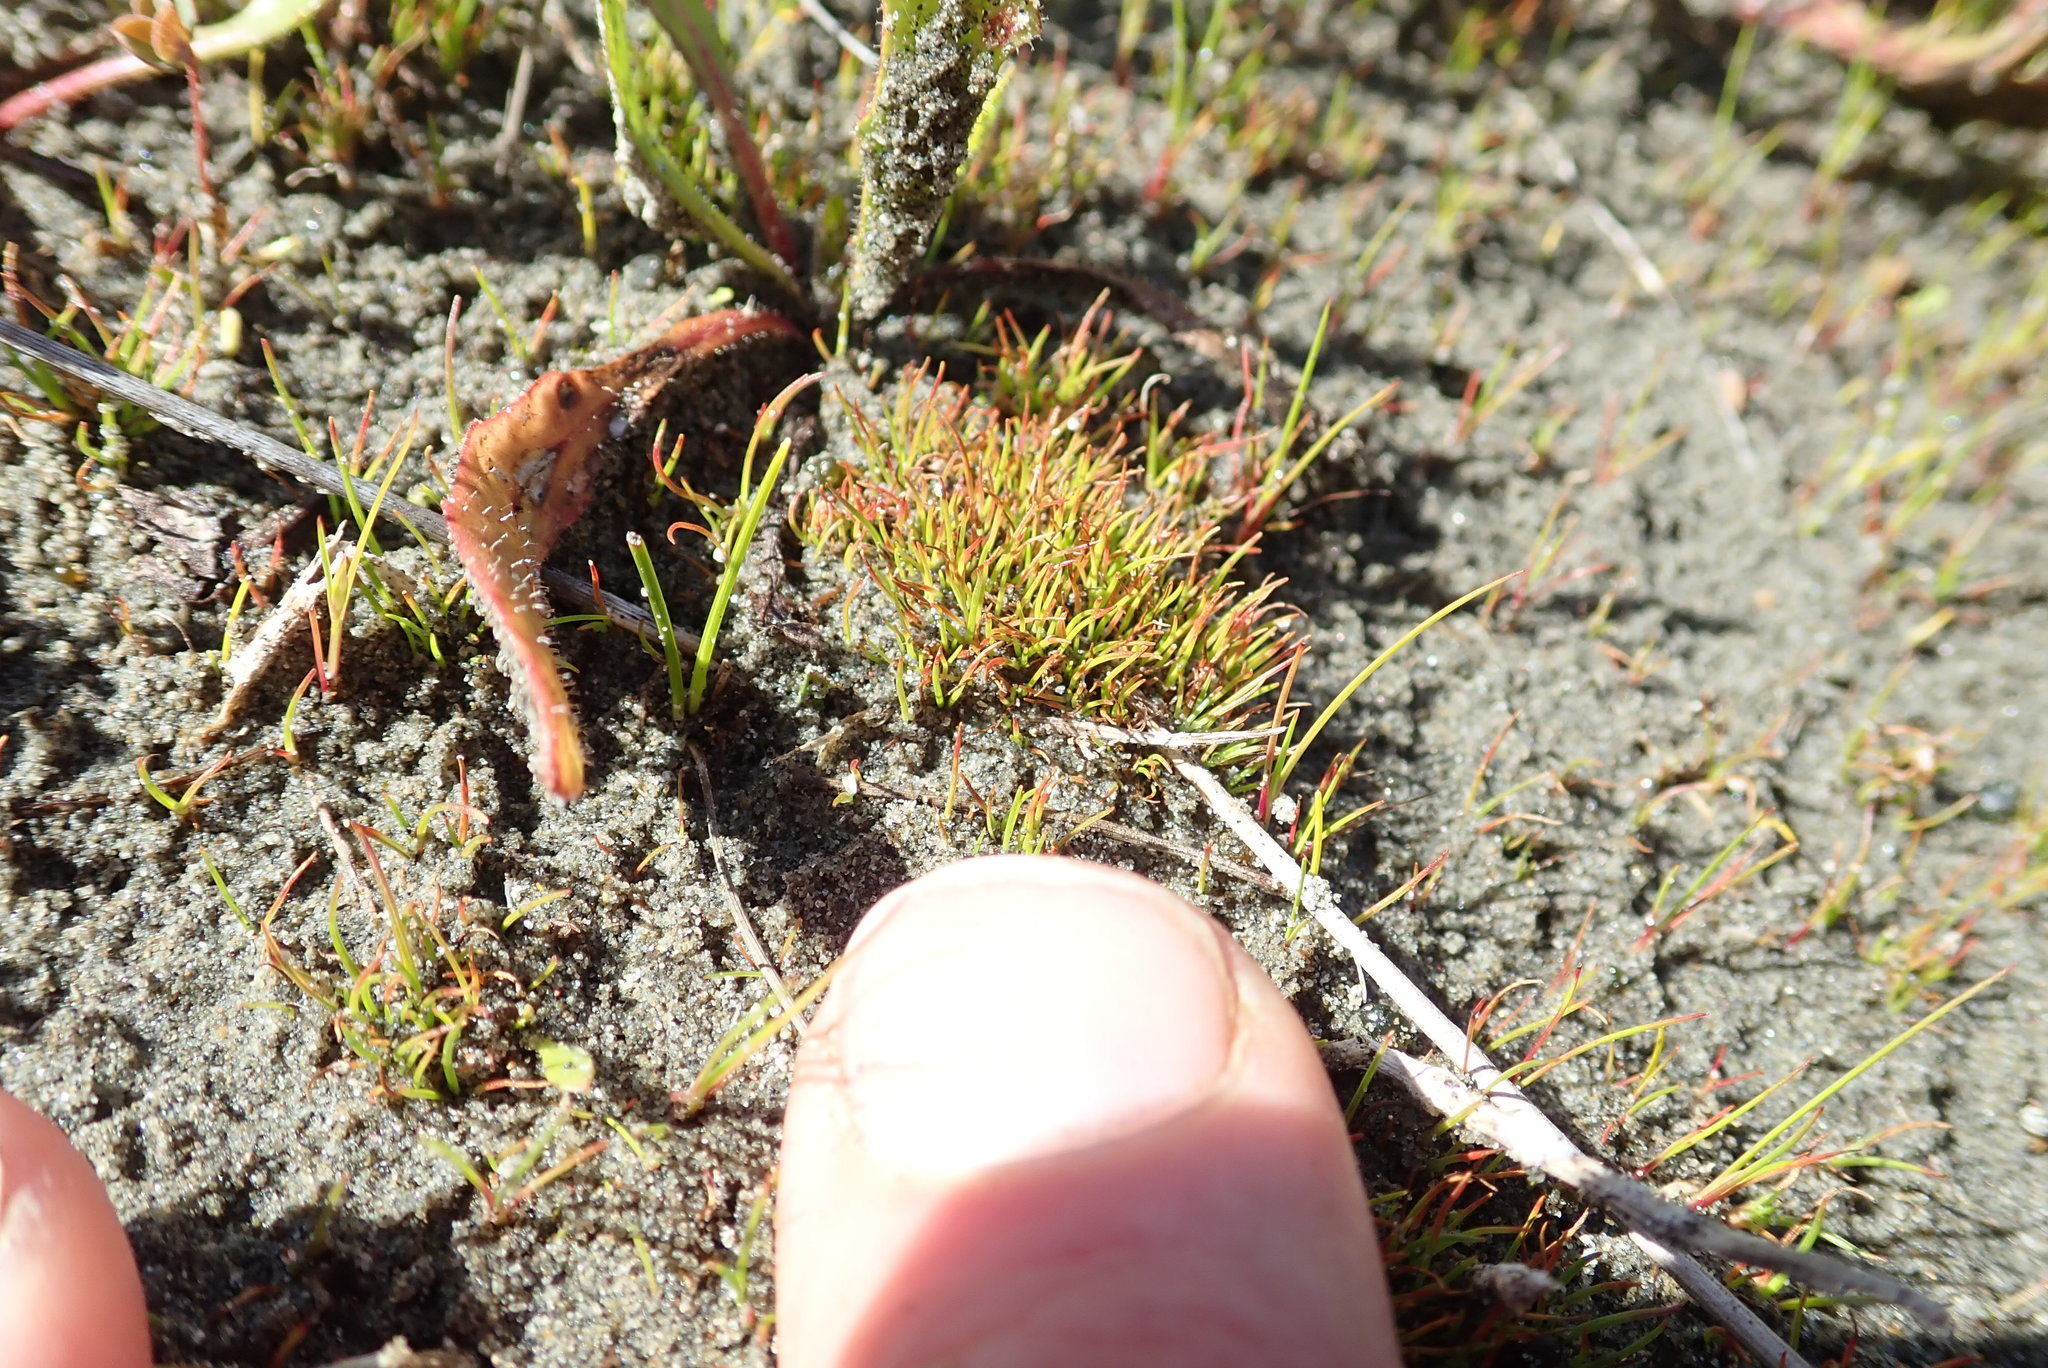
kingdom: Plantae
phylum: Tracheophyta
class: Liliopsida
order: Poales
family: Juncaceae
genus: Juncus
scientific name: Juncus caespiticius
